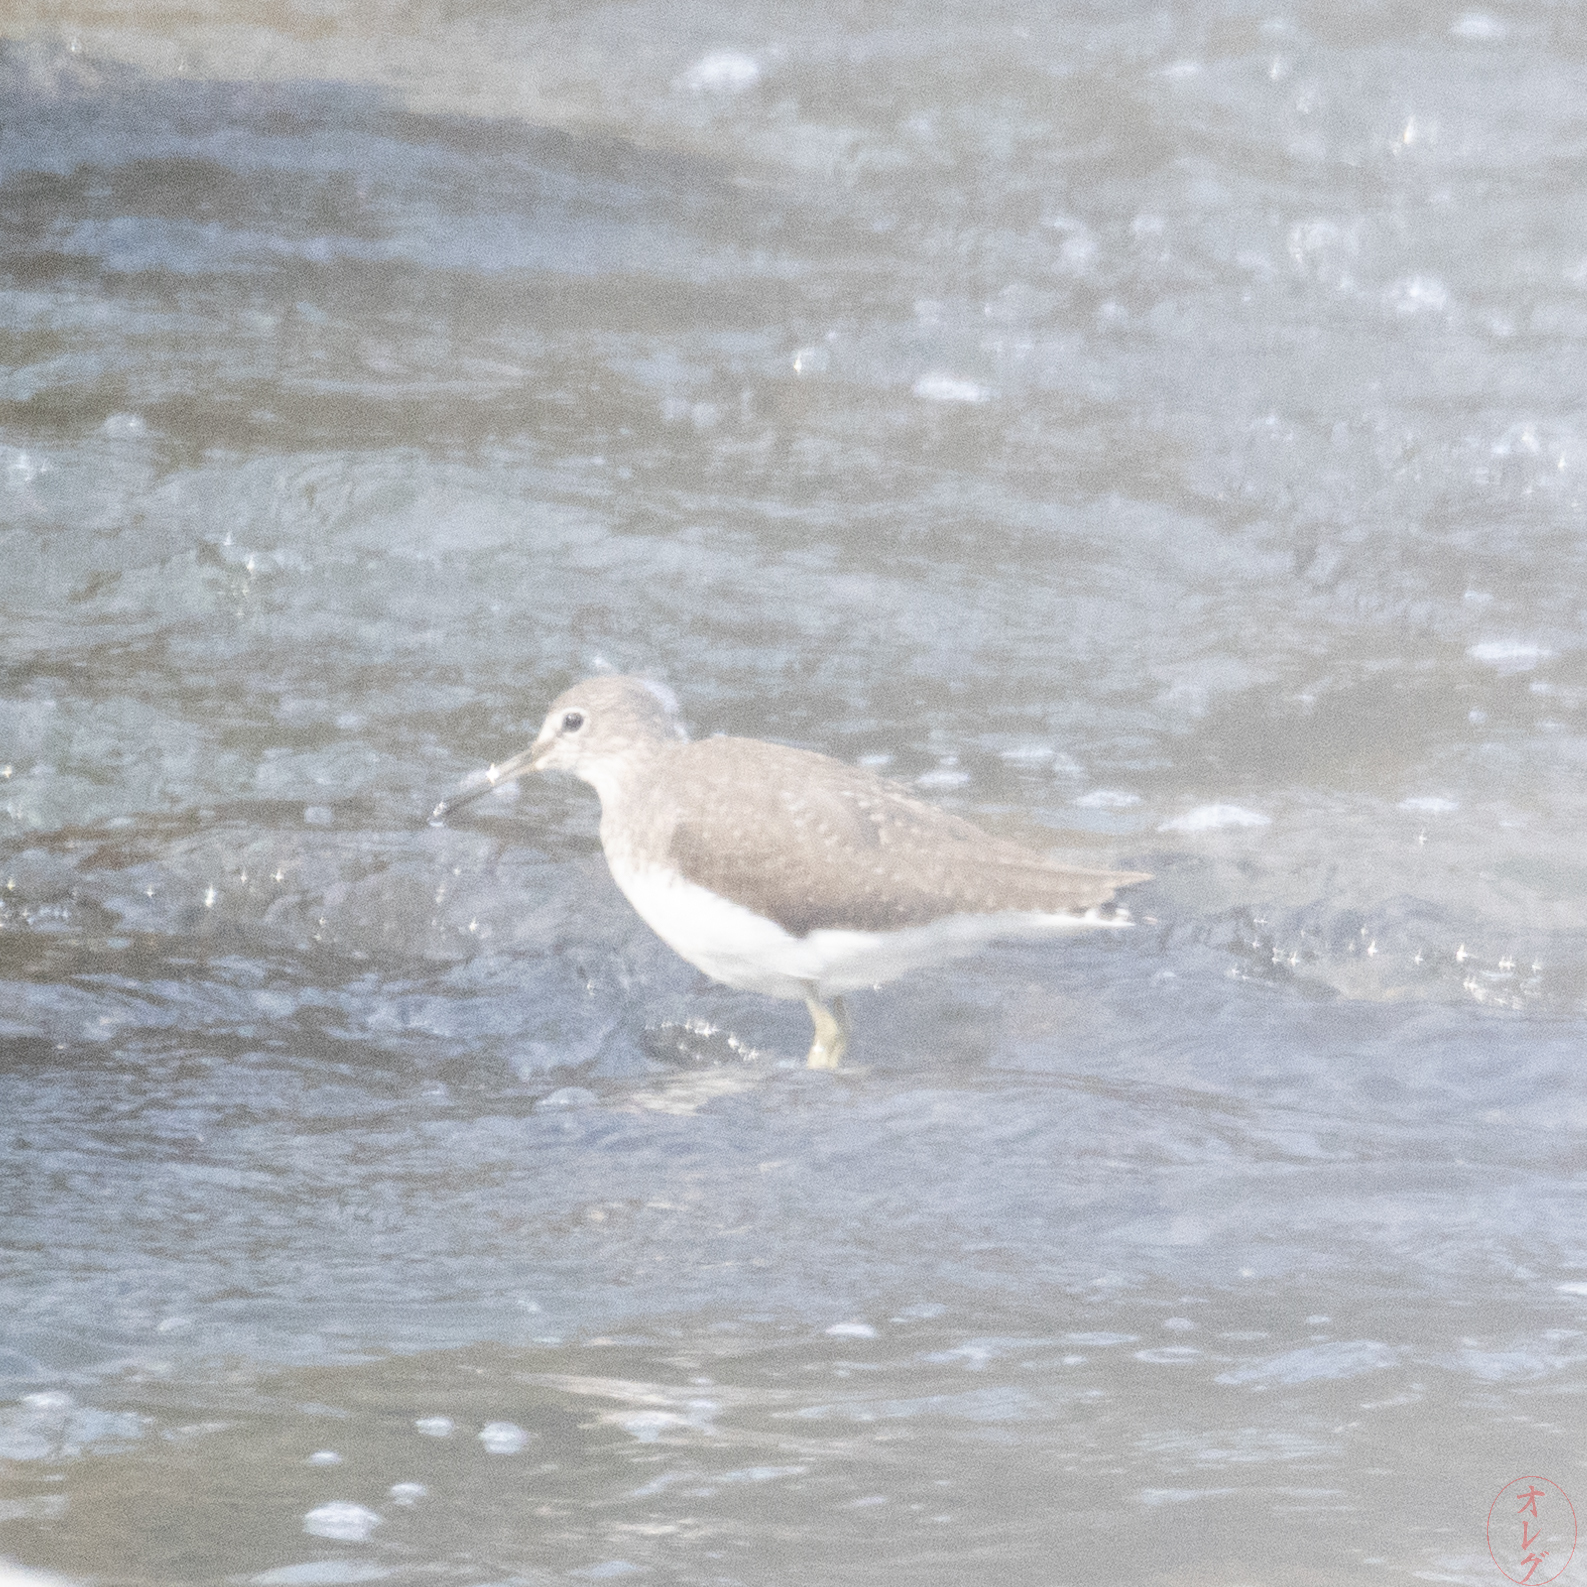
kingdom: Animalia
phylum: Chordata
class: Aves
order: Charadriiformes
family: Scolopacidae
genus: Tringa
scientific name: Tringa ochropus
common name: Green sandpiper
